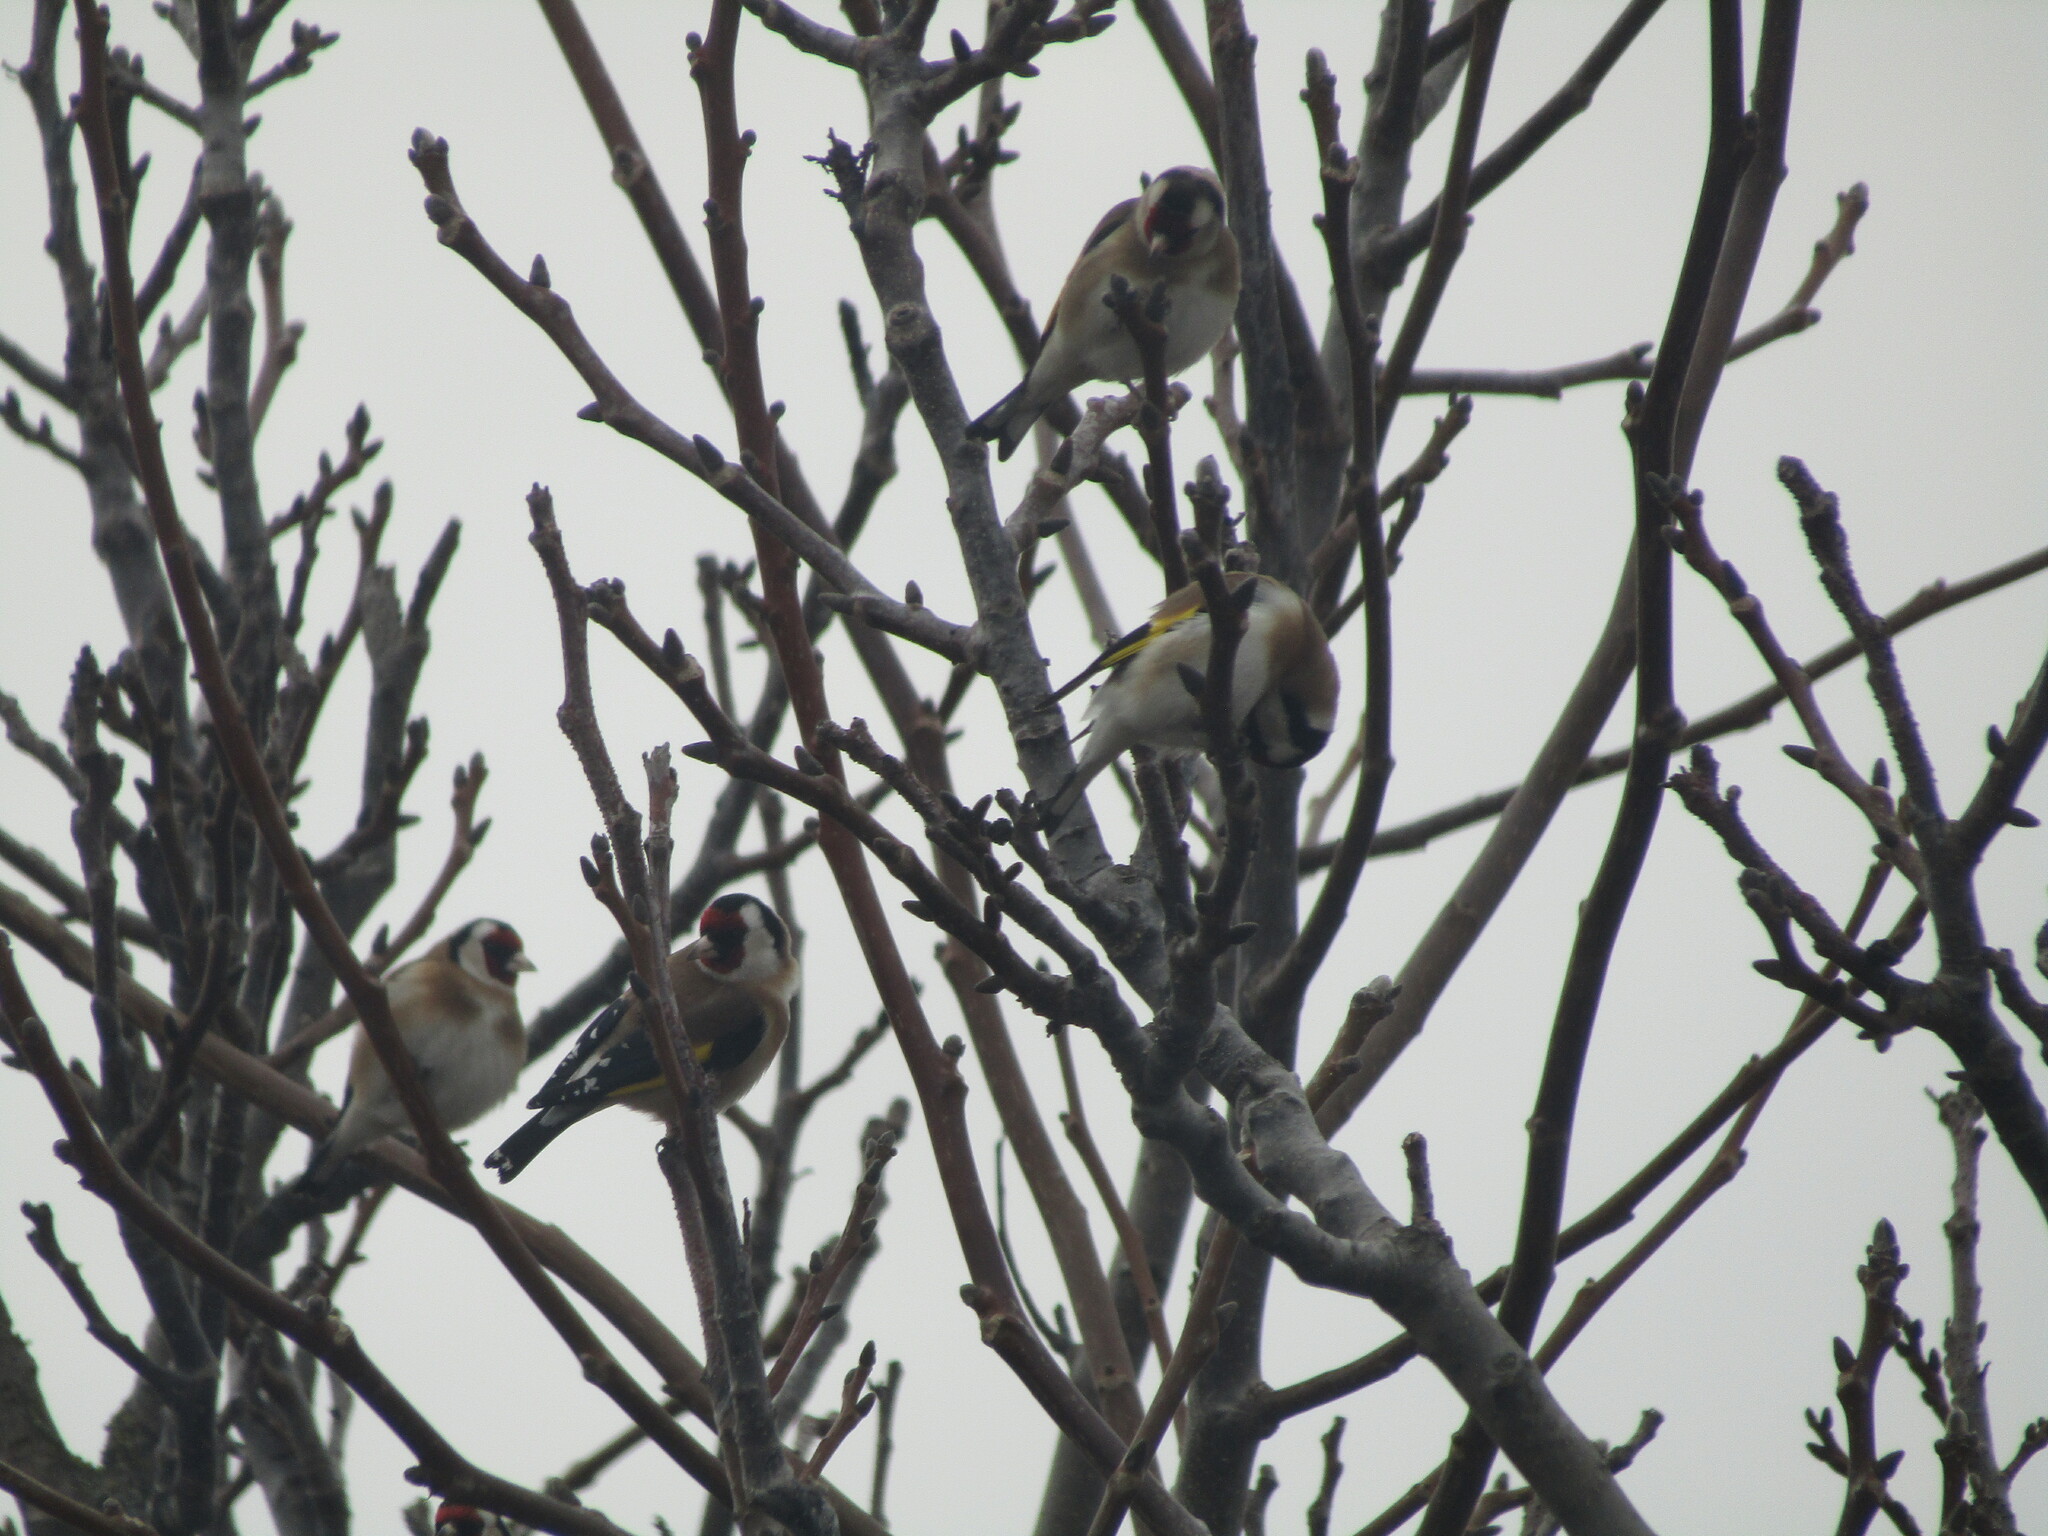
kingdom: Animalia
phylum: Chordata
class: Aves
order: Passeriformes
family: Fringillidae
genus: Carduelis
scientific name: Carduelis carduelis
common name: European goldfinch
